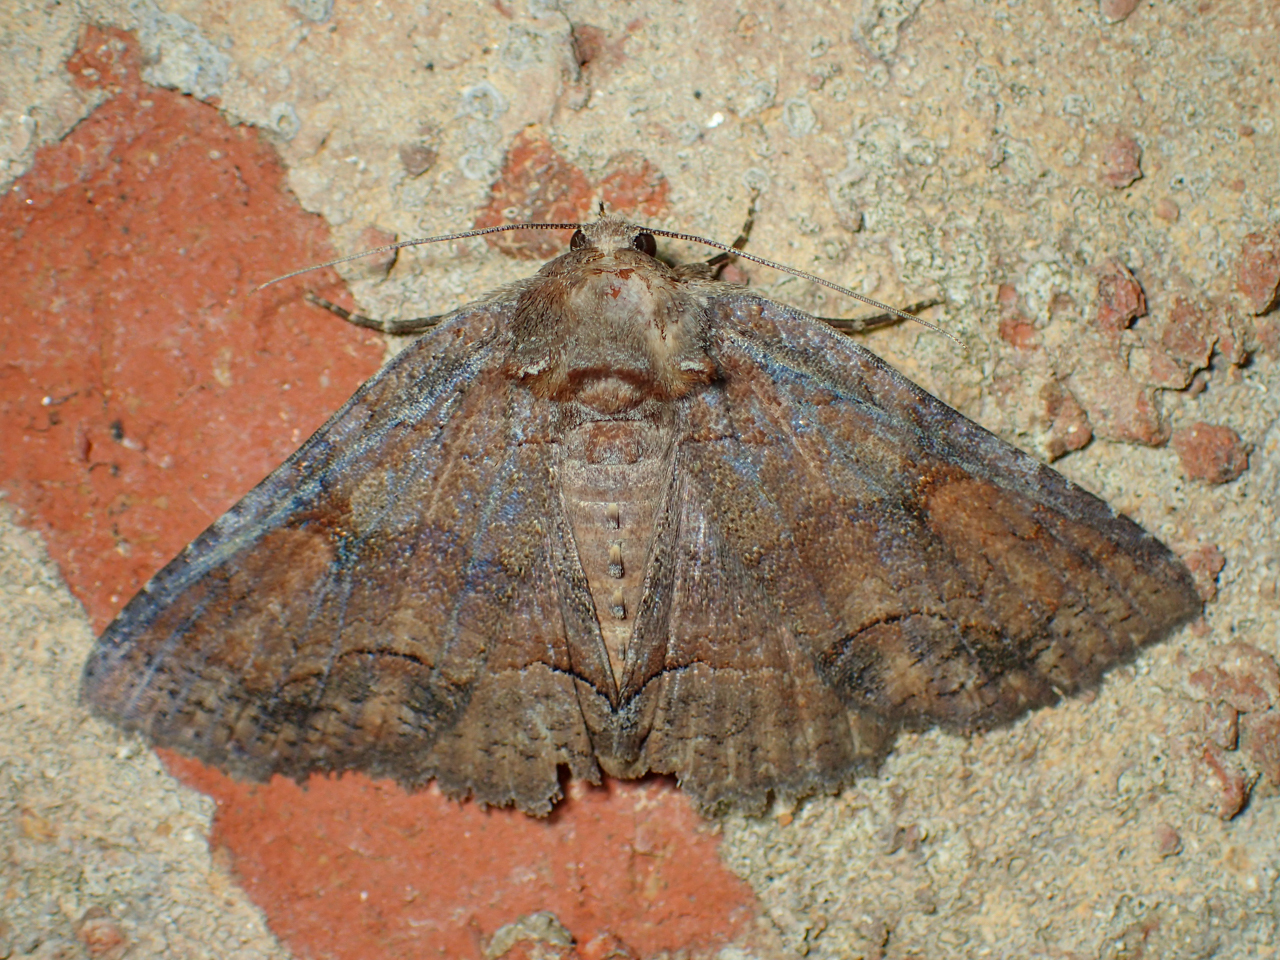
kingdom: Animalia
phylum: Arthropoda
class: Insecta
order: Lepidoptera
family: Erebidae
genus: Zale
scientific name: Zale metatoides
